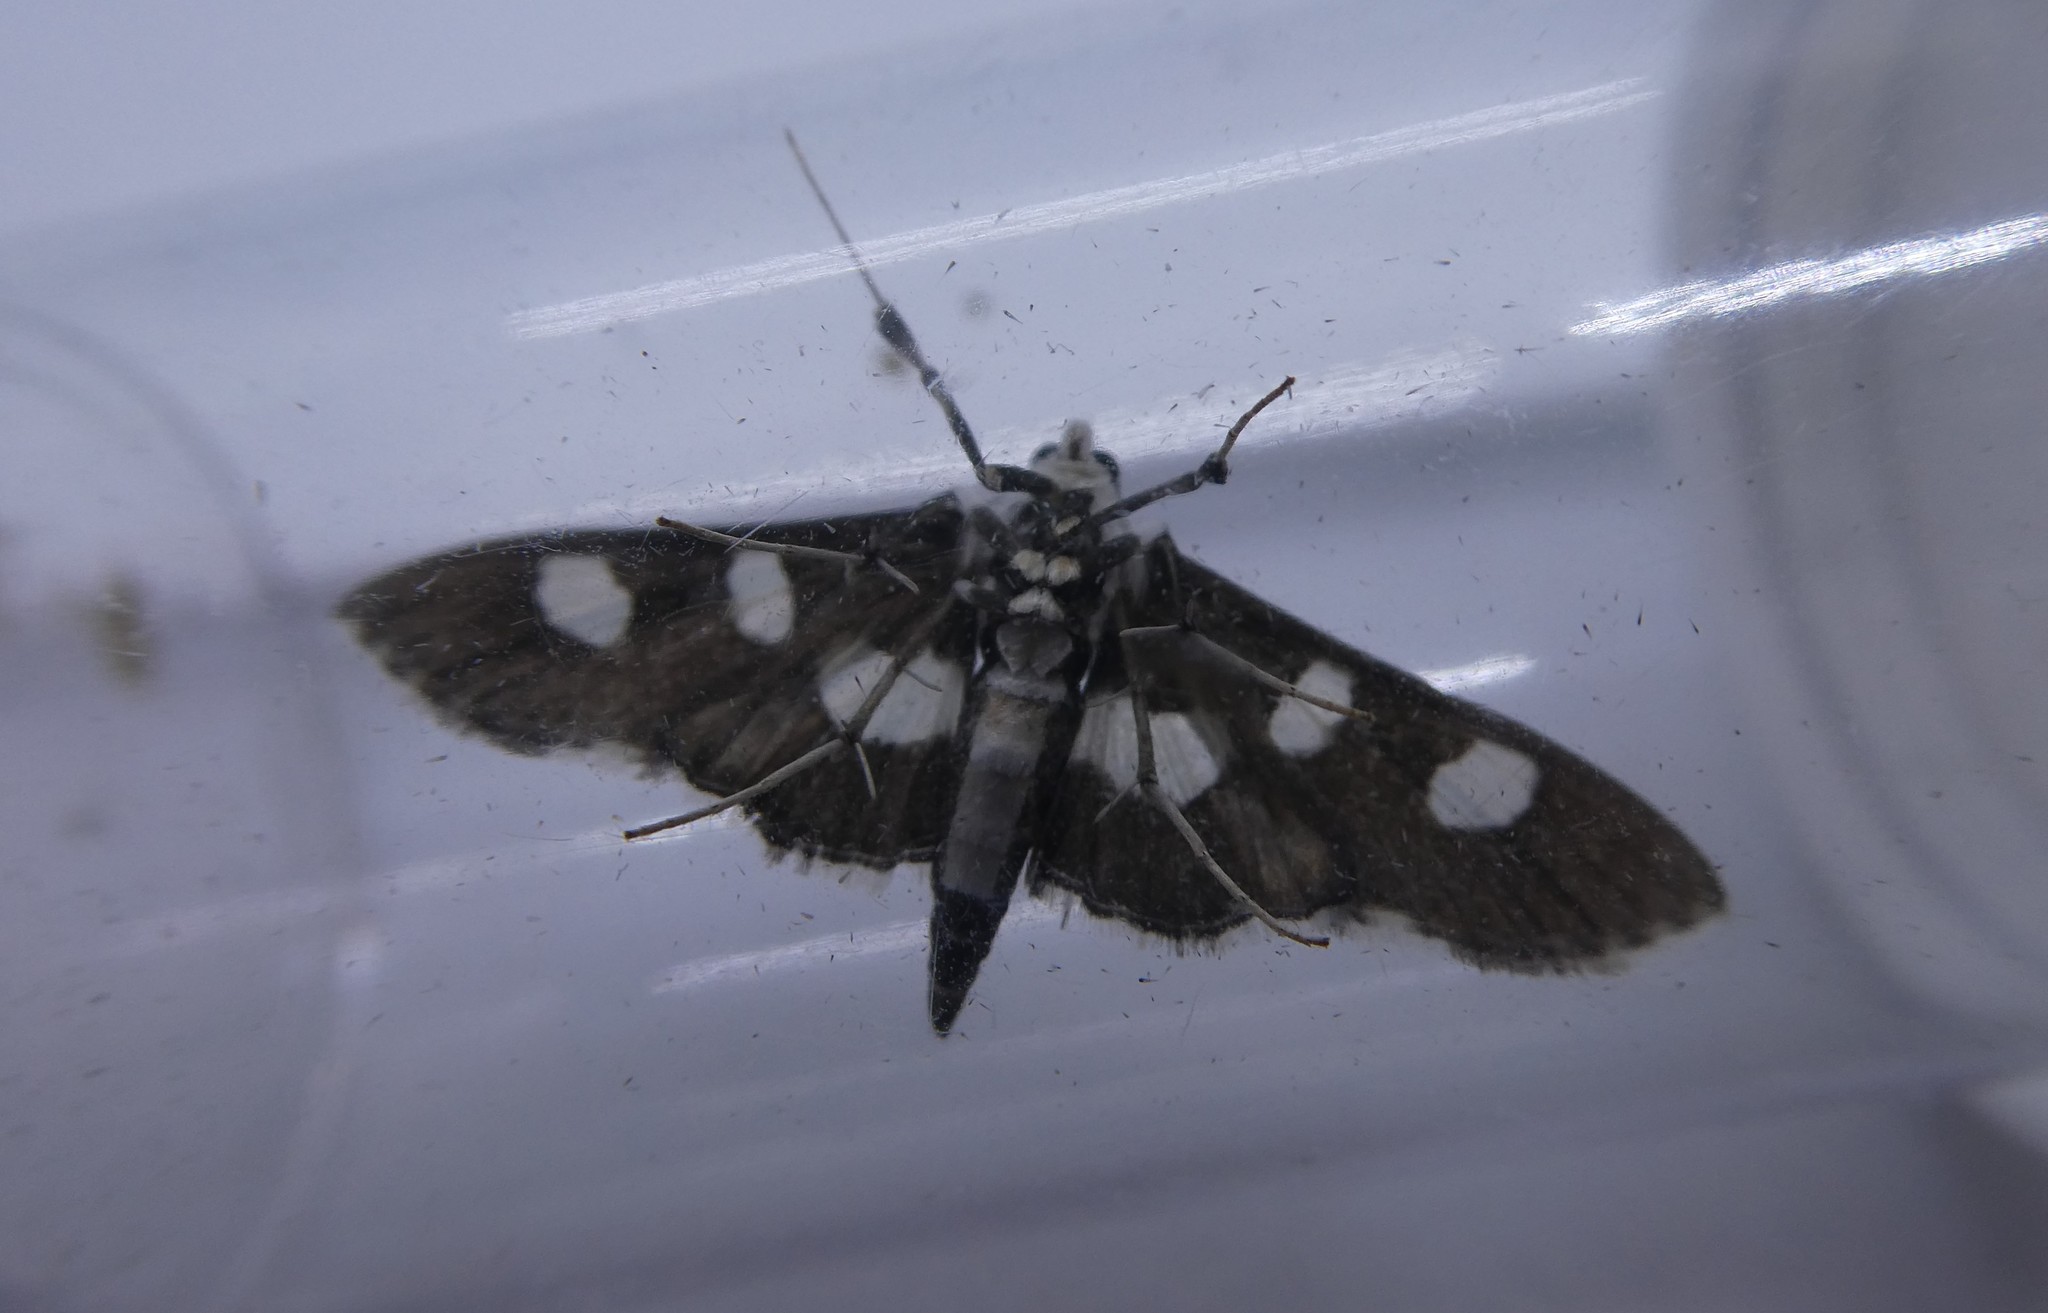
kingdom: Animalia
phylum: Arthropoda
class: Insecta
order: Lepidoptera
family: Crambidae
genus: Desmia
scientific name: Desmia funeralis
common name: Grape leaf folder moth
